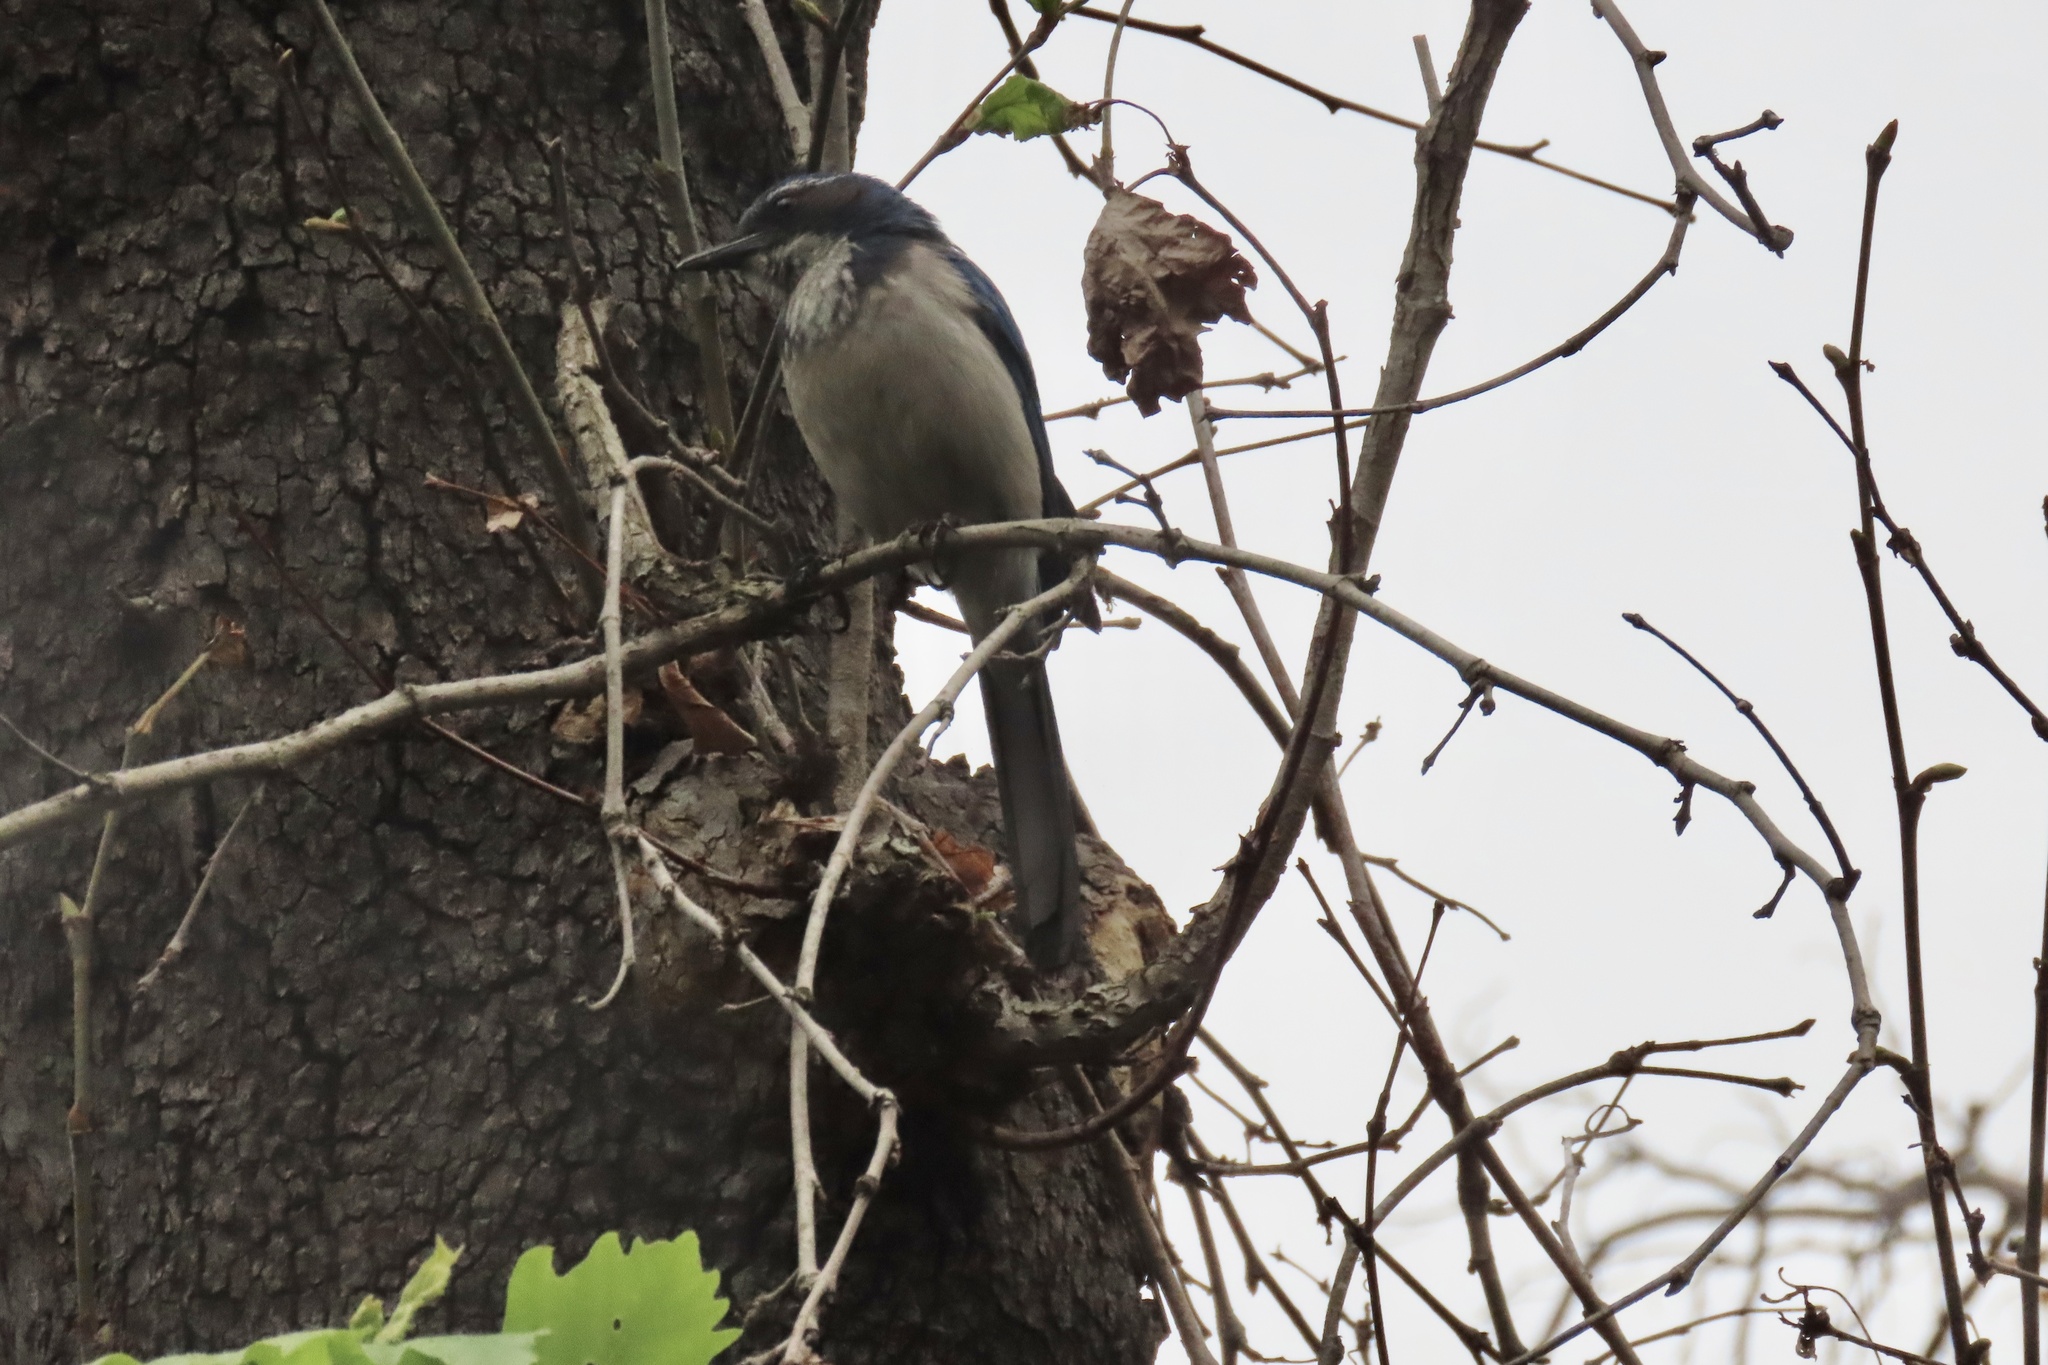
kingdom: Animalia
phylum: Chordata
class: Aves
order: Passeriformes
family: Corvidae
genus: Aphelocoma
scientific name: Aphelocoma californica
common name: California scrub-jay
